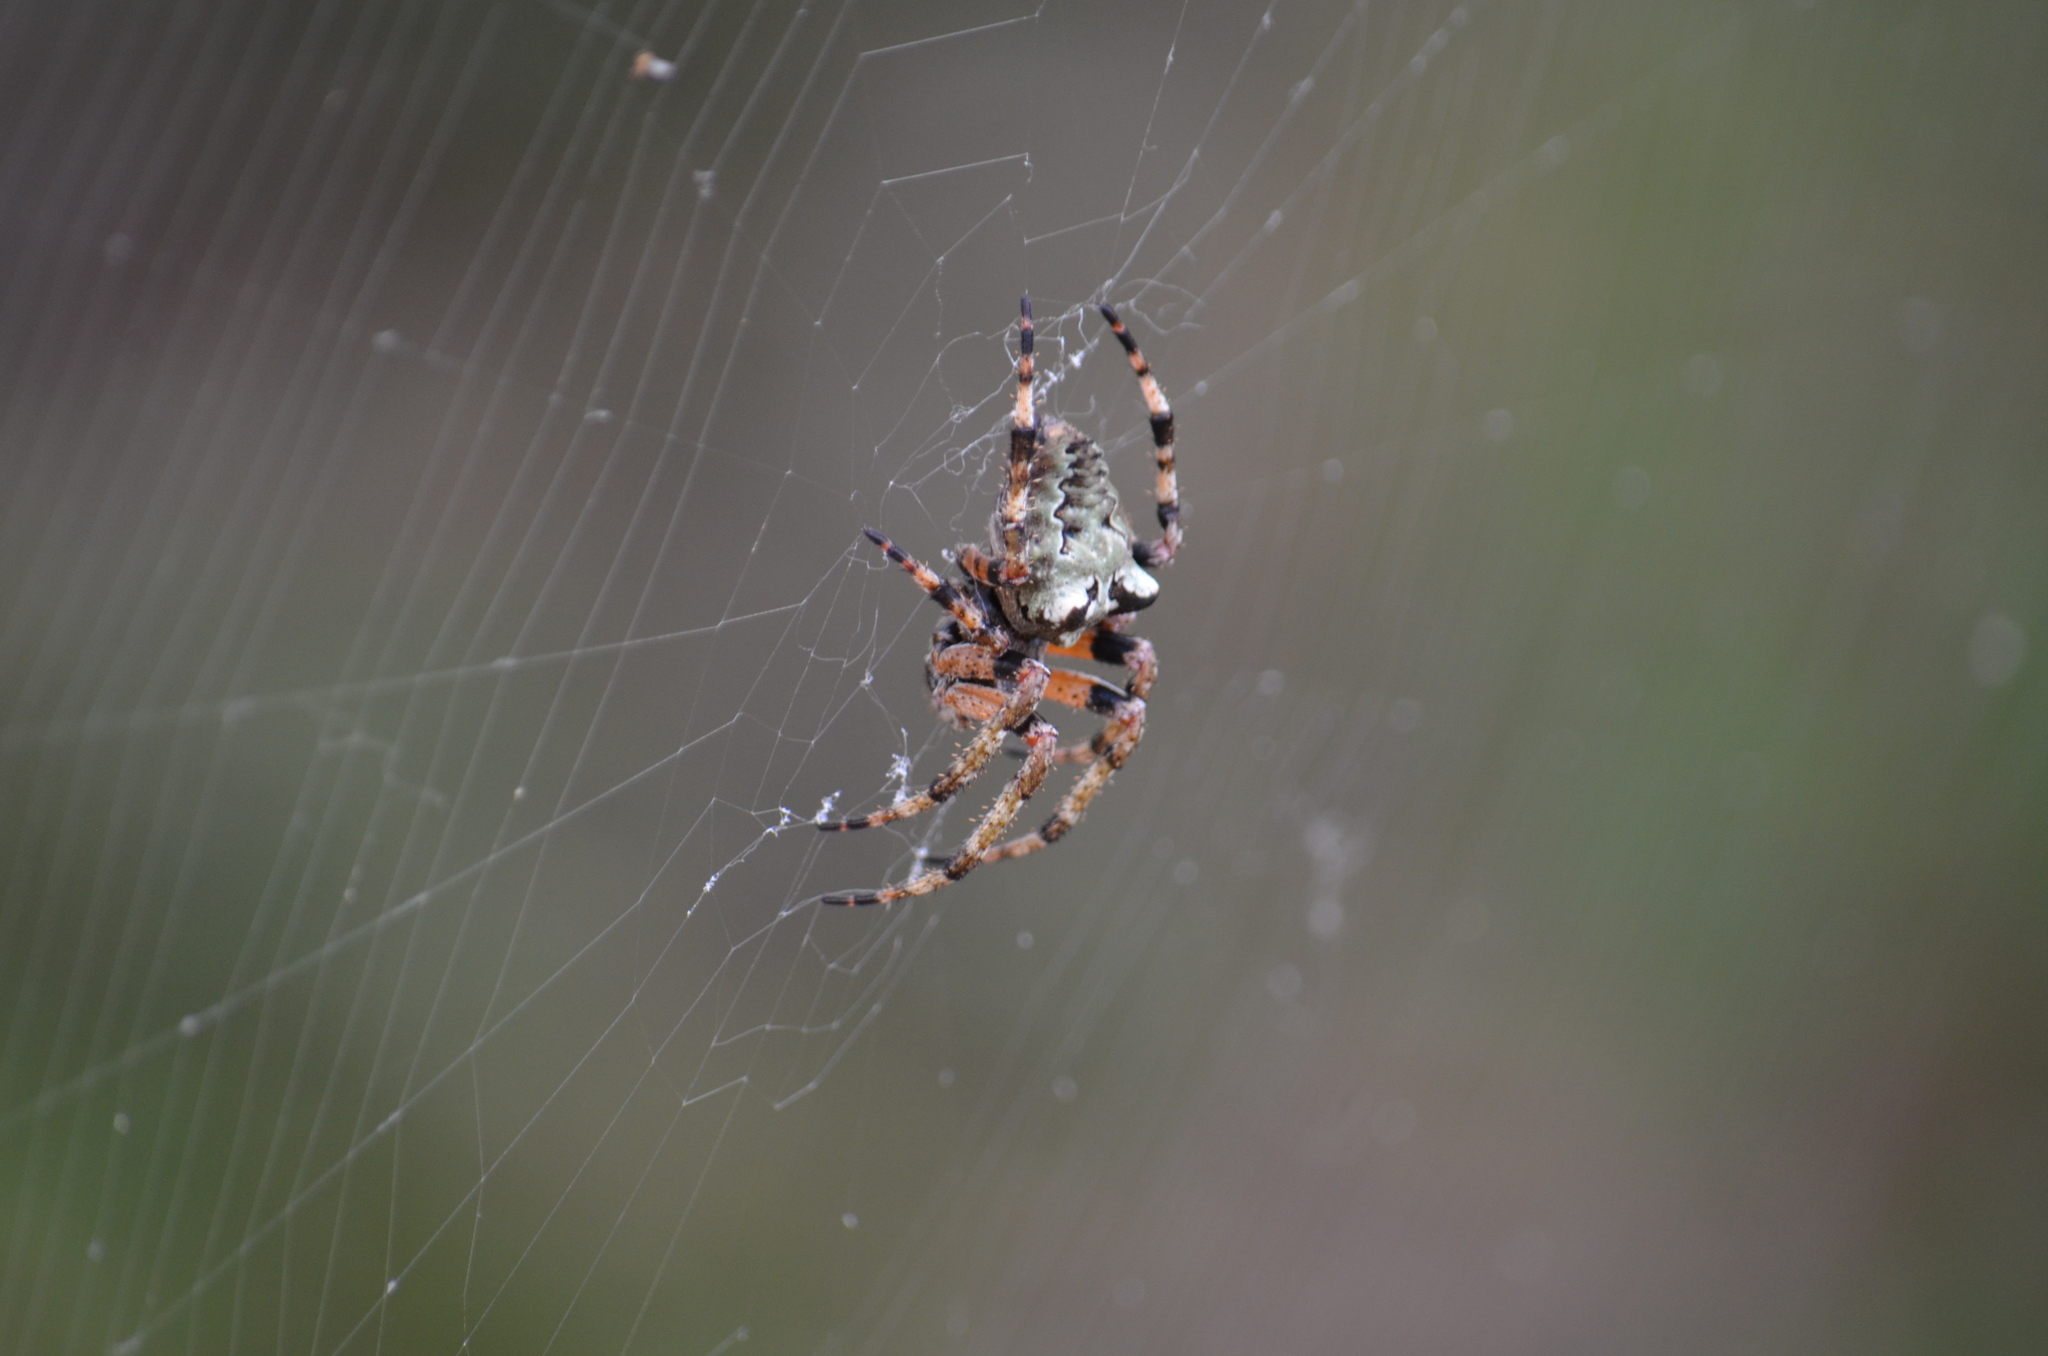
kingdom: Animalia
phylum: Arthropoda
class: Arachnida
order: Araneae
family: Araneidae
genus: Araneus
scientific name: Araneus bicentenarius
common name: Giant lichen orbweaver
